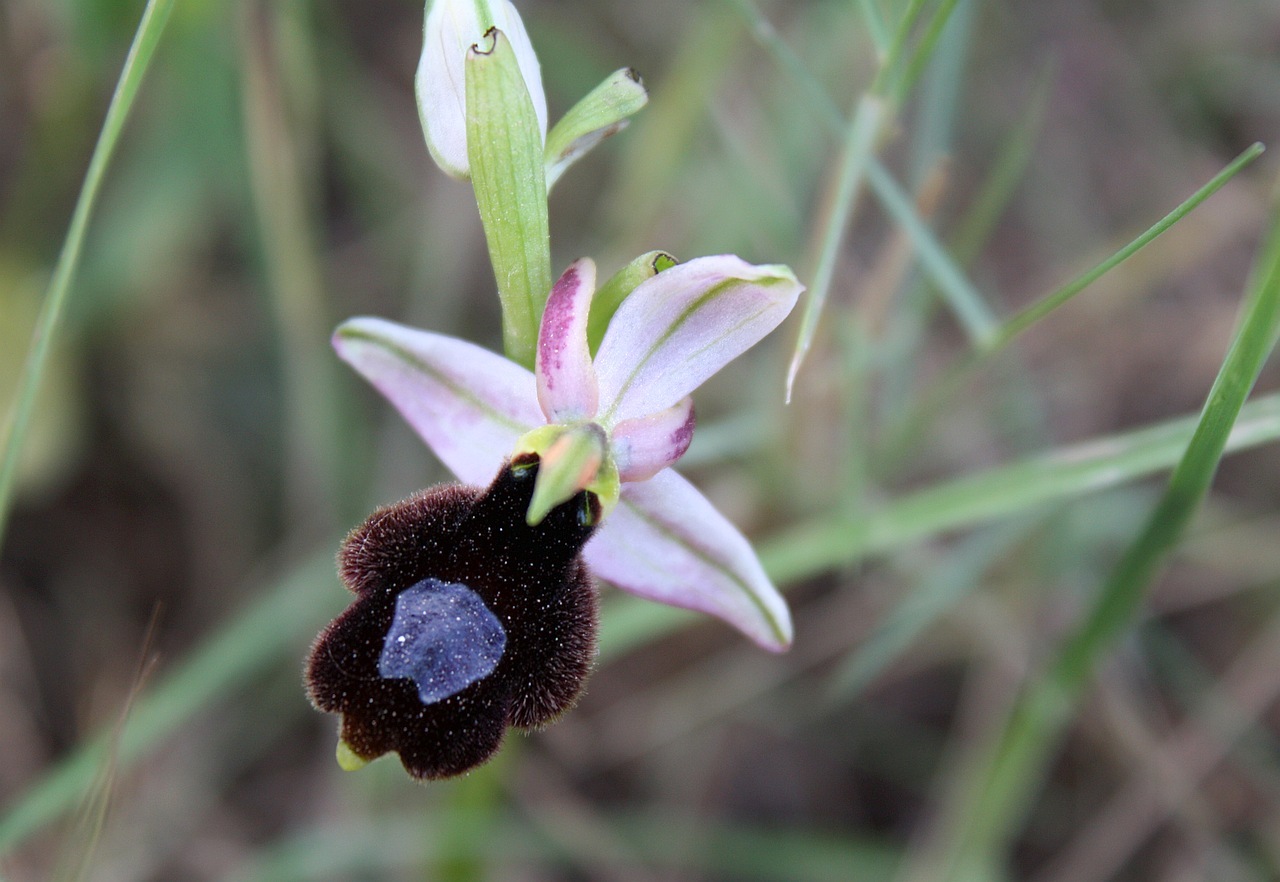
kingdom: Plantae
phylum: Tracheophyta
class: Liliopsida
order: Asparagales
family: Orchidaceae
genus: Ophrys
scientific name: Ophrys flavicans
